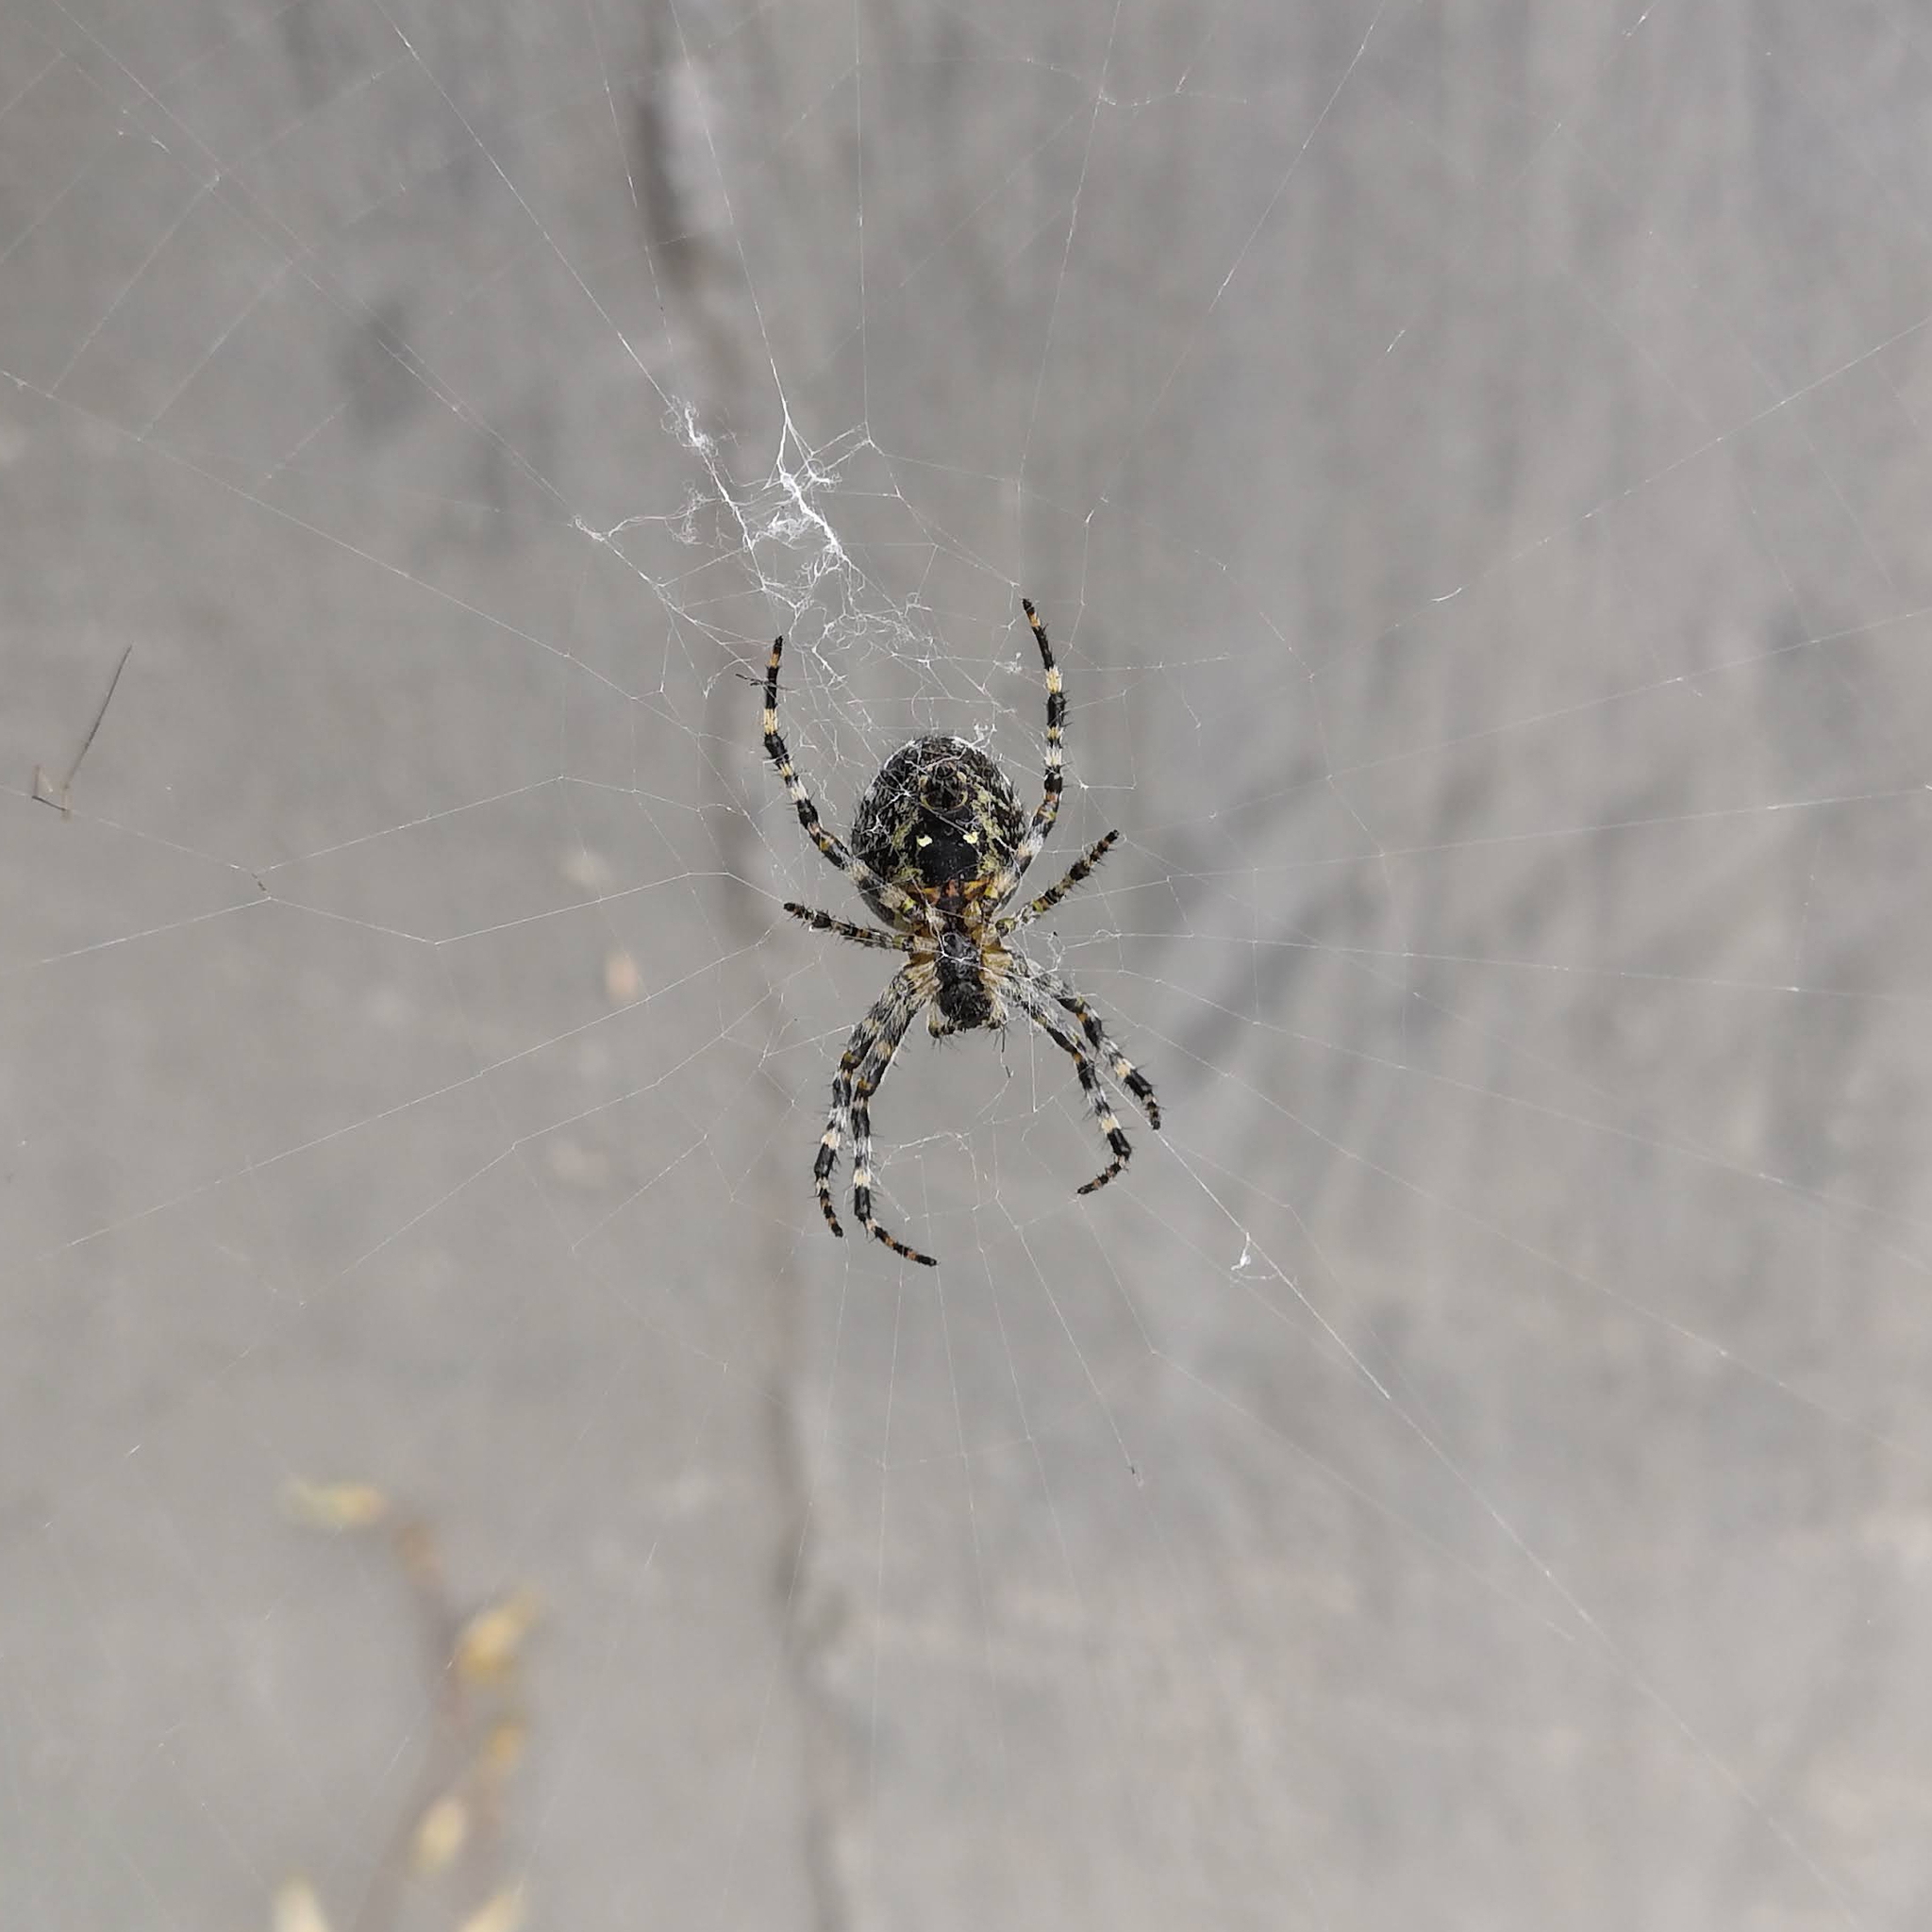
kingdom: Animalia
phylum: Arthropoda
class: Arachnida
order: Araneae
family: Araneidae
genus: Araneus
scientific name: Araneus diadematus
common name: Cross orbweaver
